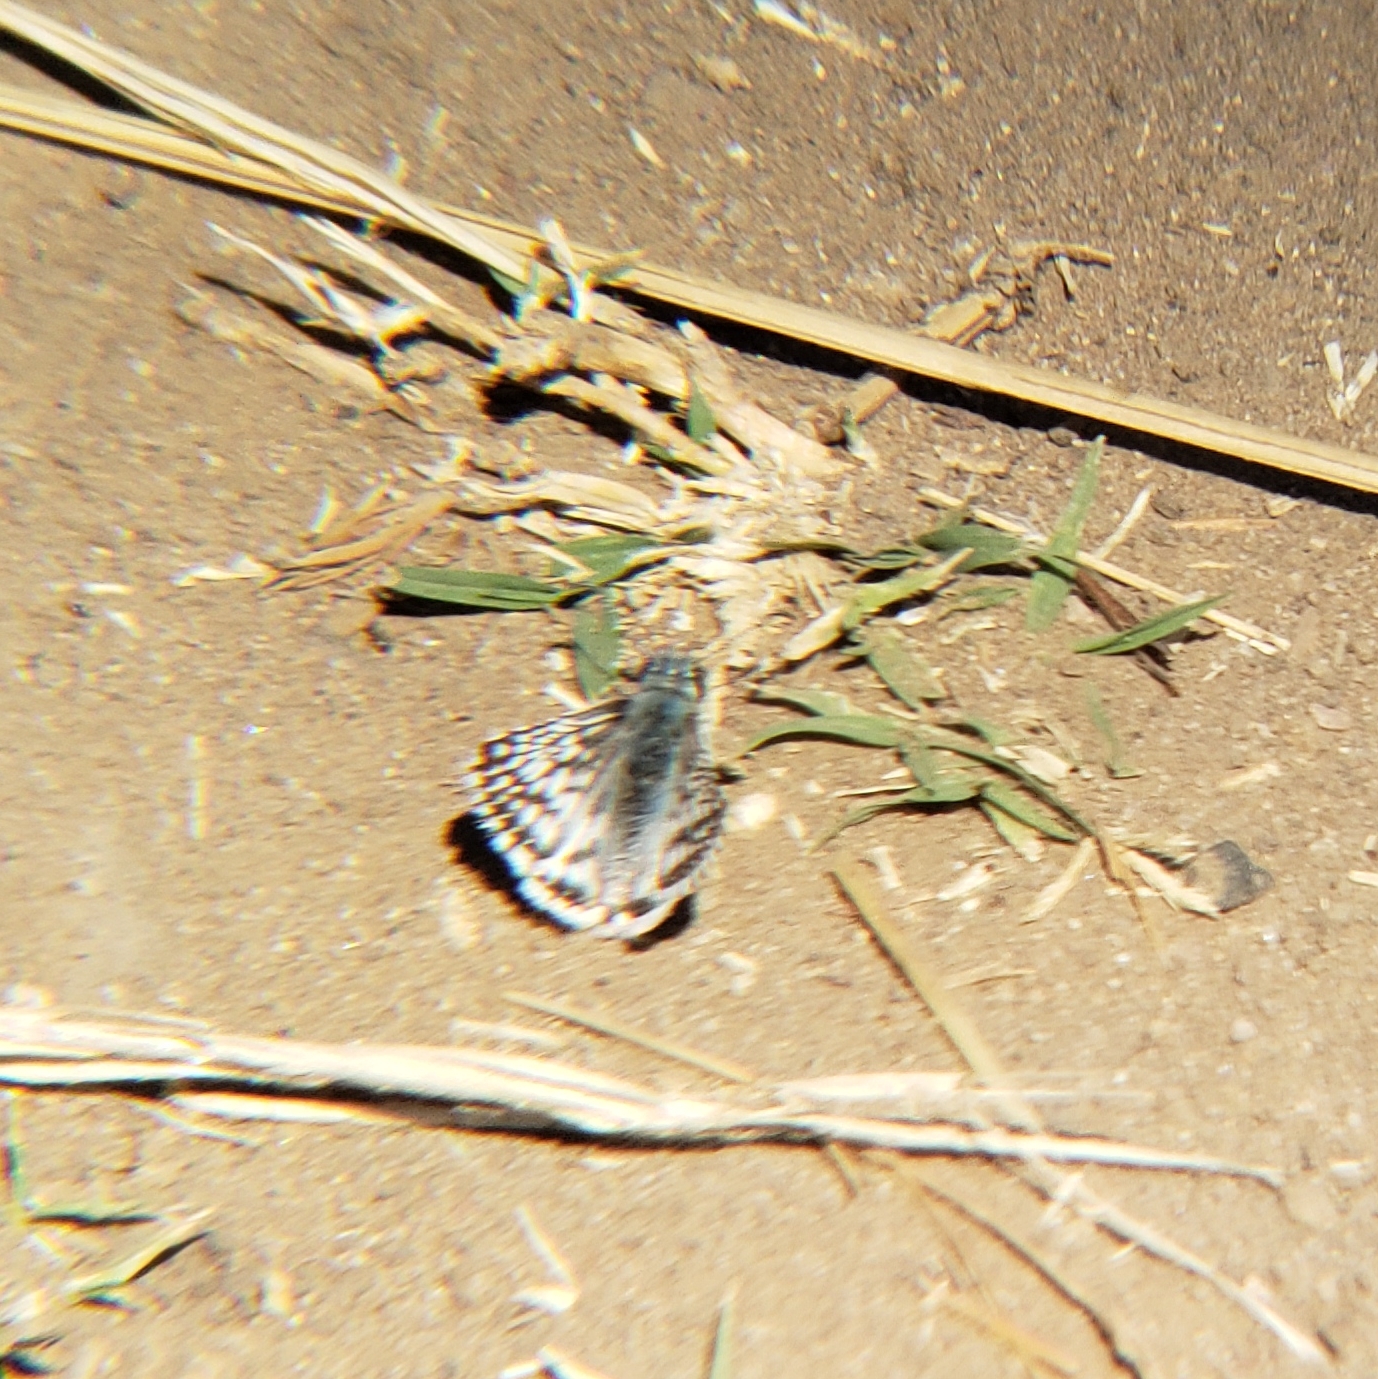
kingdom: Animalia
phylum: Arthropoda
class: Insecta
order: Lepidoptera
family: Hesperiidae
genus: Burnsius
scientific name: Burnsius albezens
